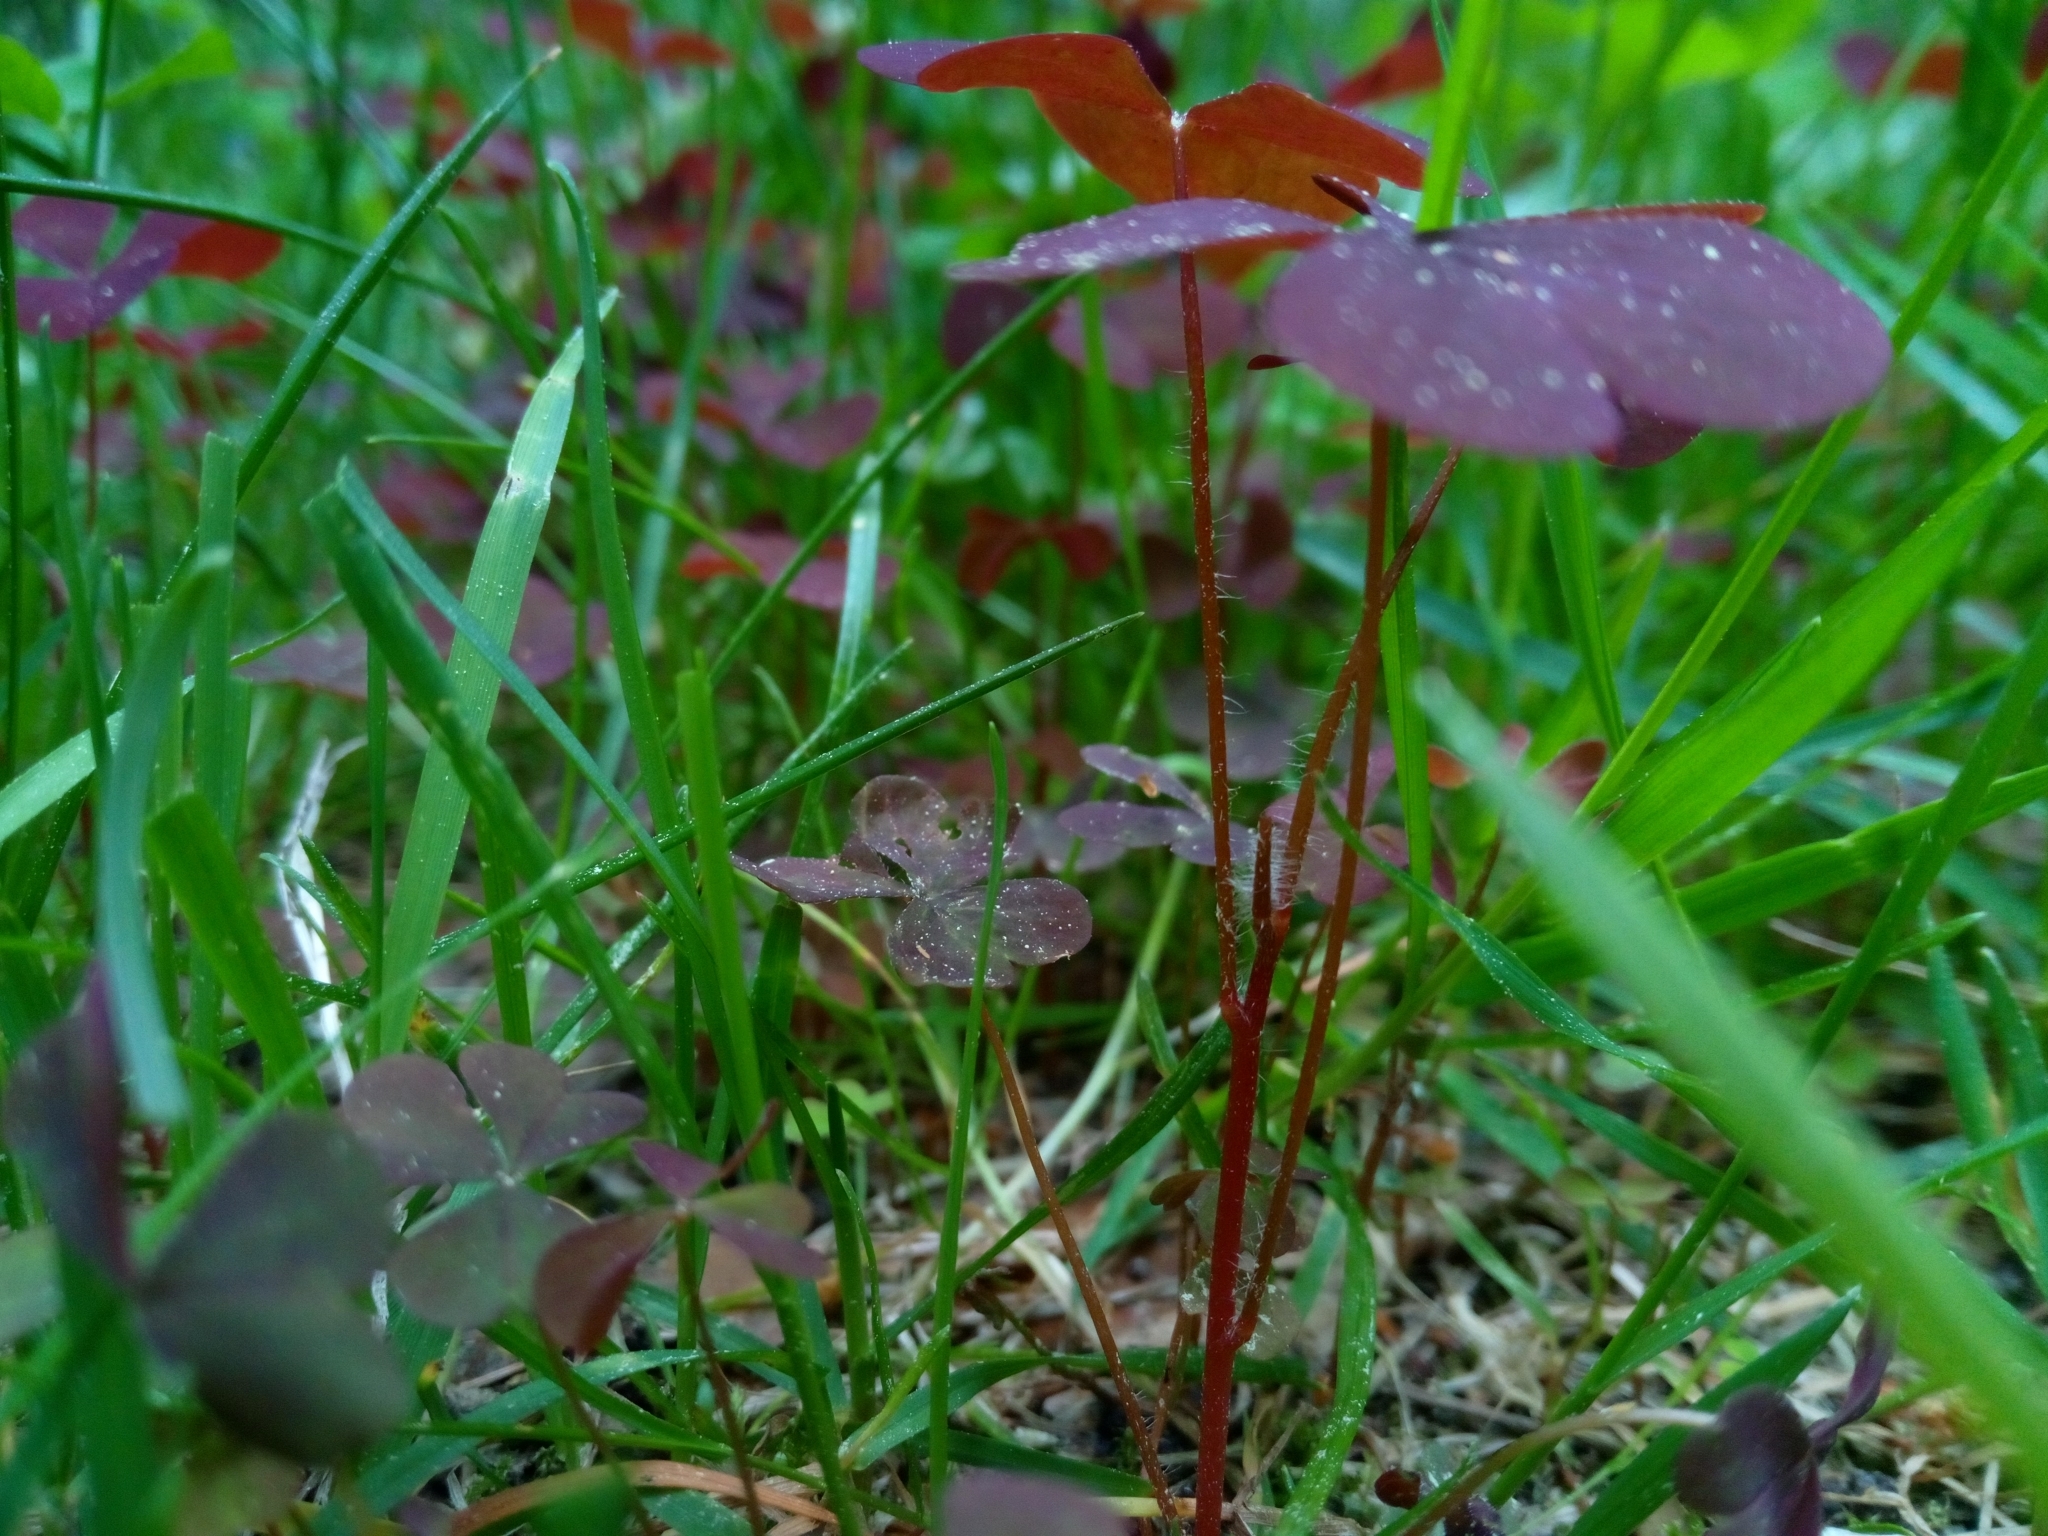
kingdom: Plantae
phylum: Tracheophyta
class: Magnoliopsida
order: Oxalidales
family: Oxalidaceae
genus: Oxalis
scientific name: Oxalis stricta
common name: Upright yellow-sorrel
